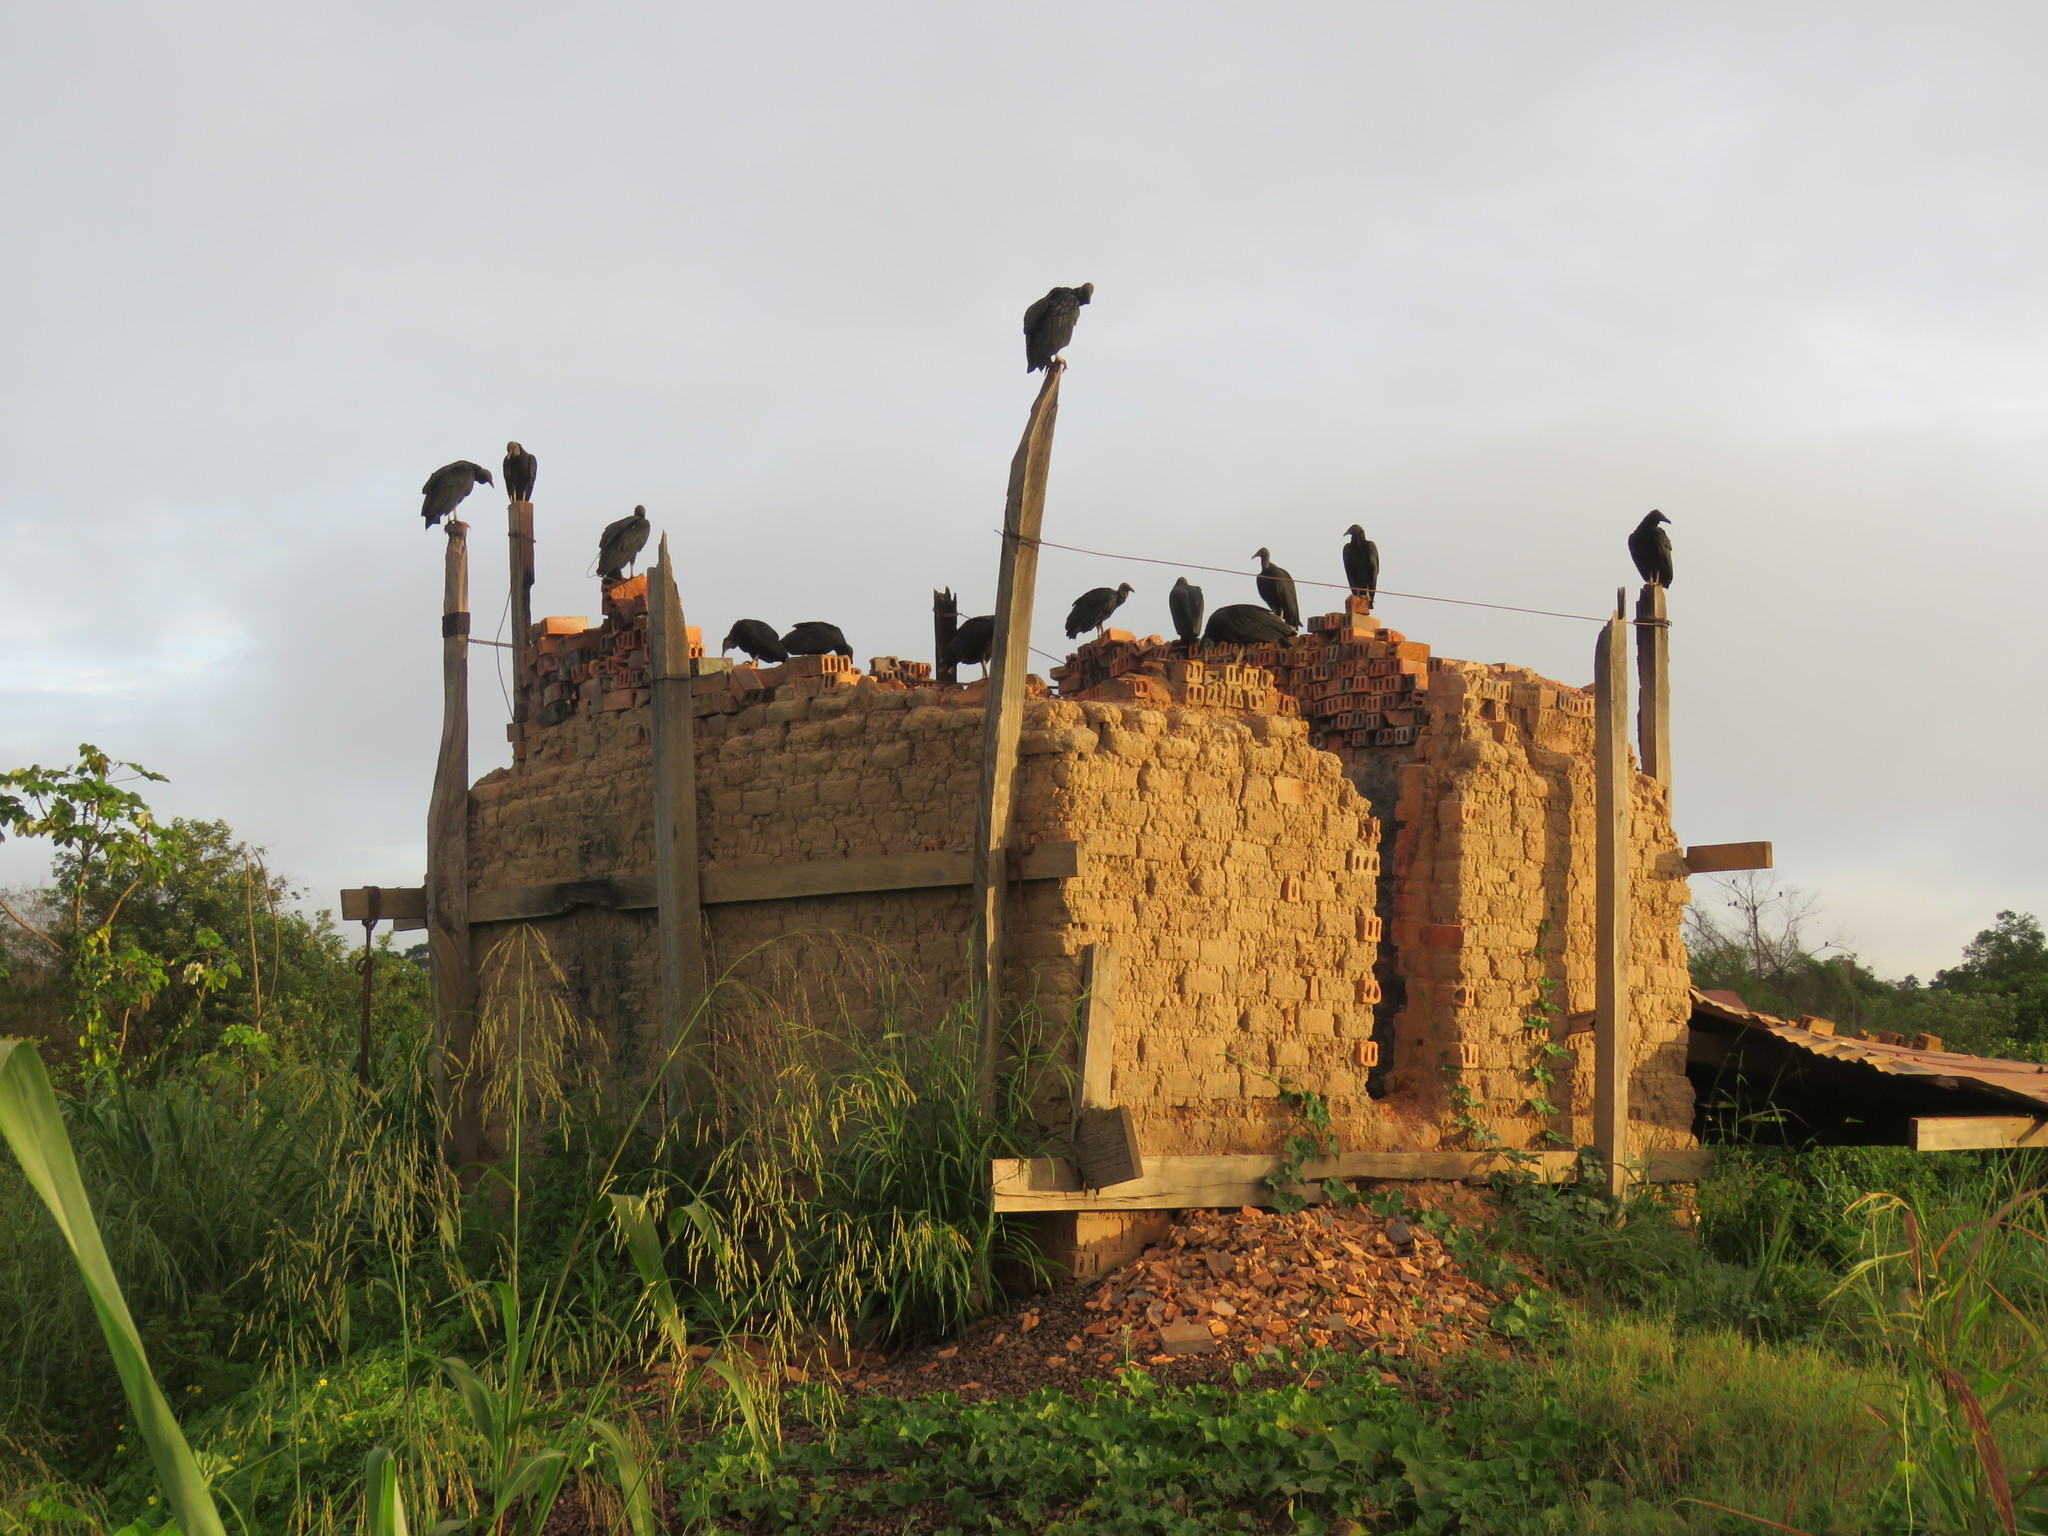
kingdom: Animalia
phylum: Chordata
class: Aves
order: Accipitriformes
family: Cathartidae
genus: Coragyps
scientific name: Coragyps atratus
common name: Black vulture
